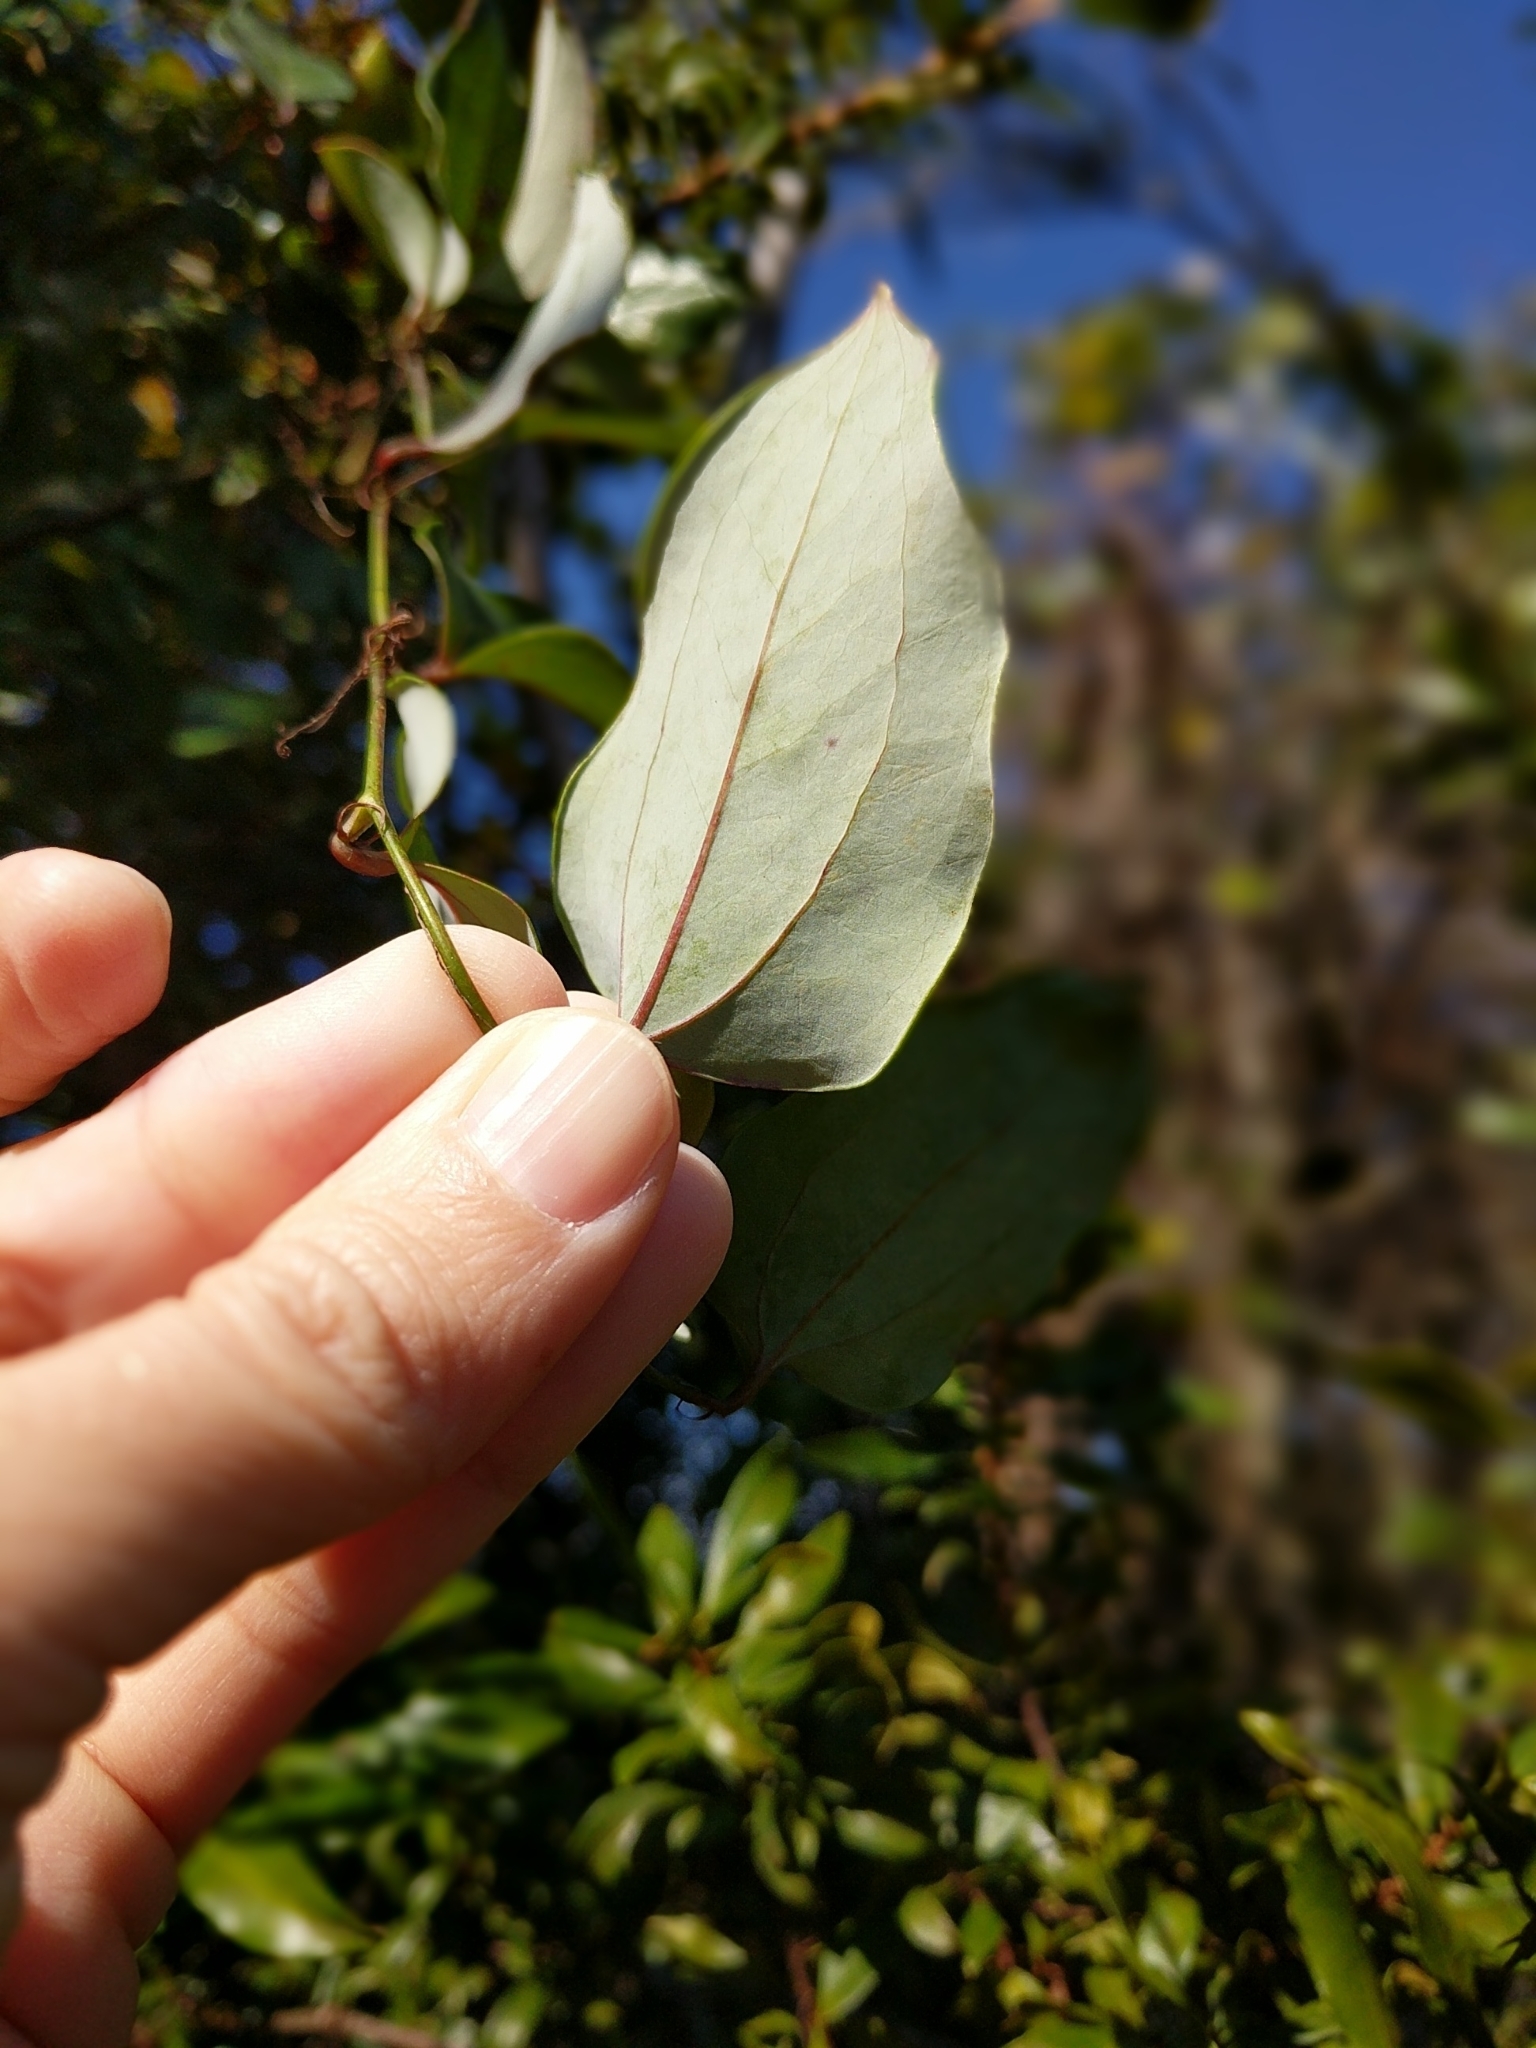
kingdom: Plantae
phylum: Tracheophyta
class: Liliopsida
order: Liliales
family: Smilacaceae
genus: Smilax
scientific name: Smilax glauca
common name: Cat greenbrier
